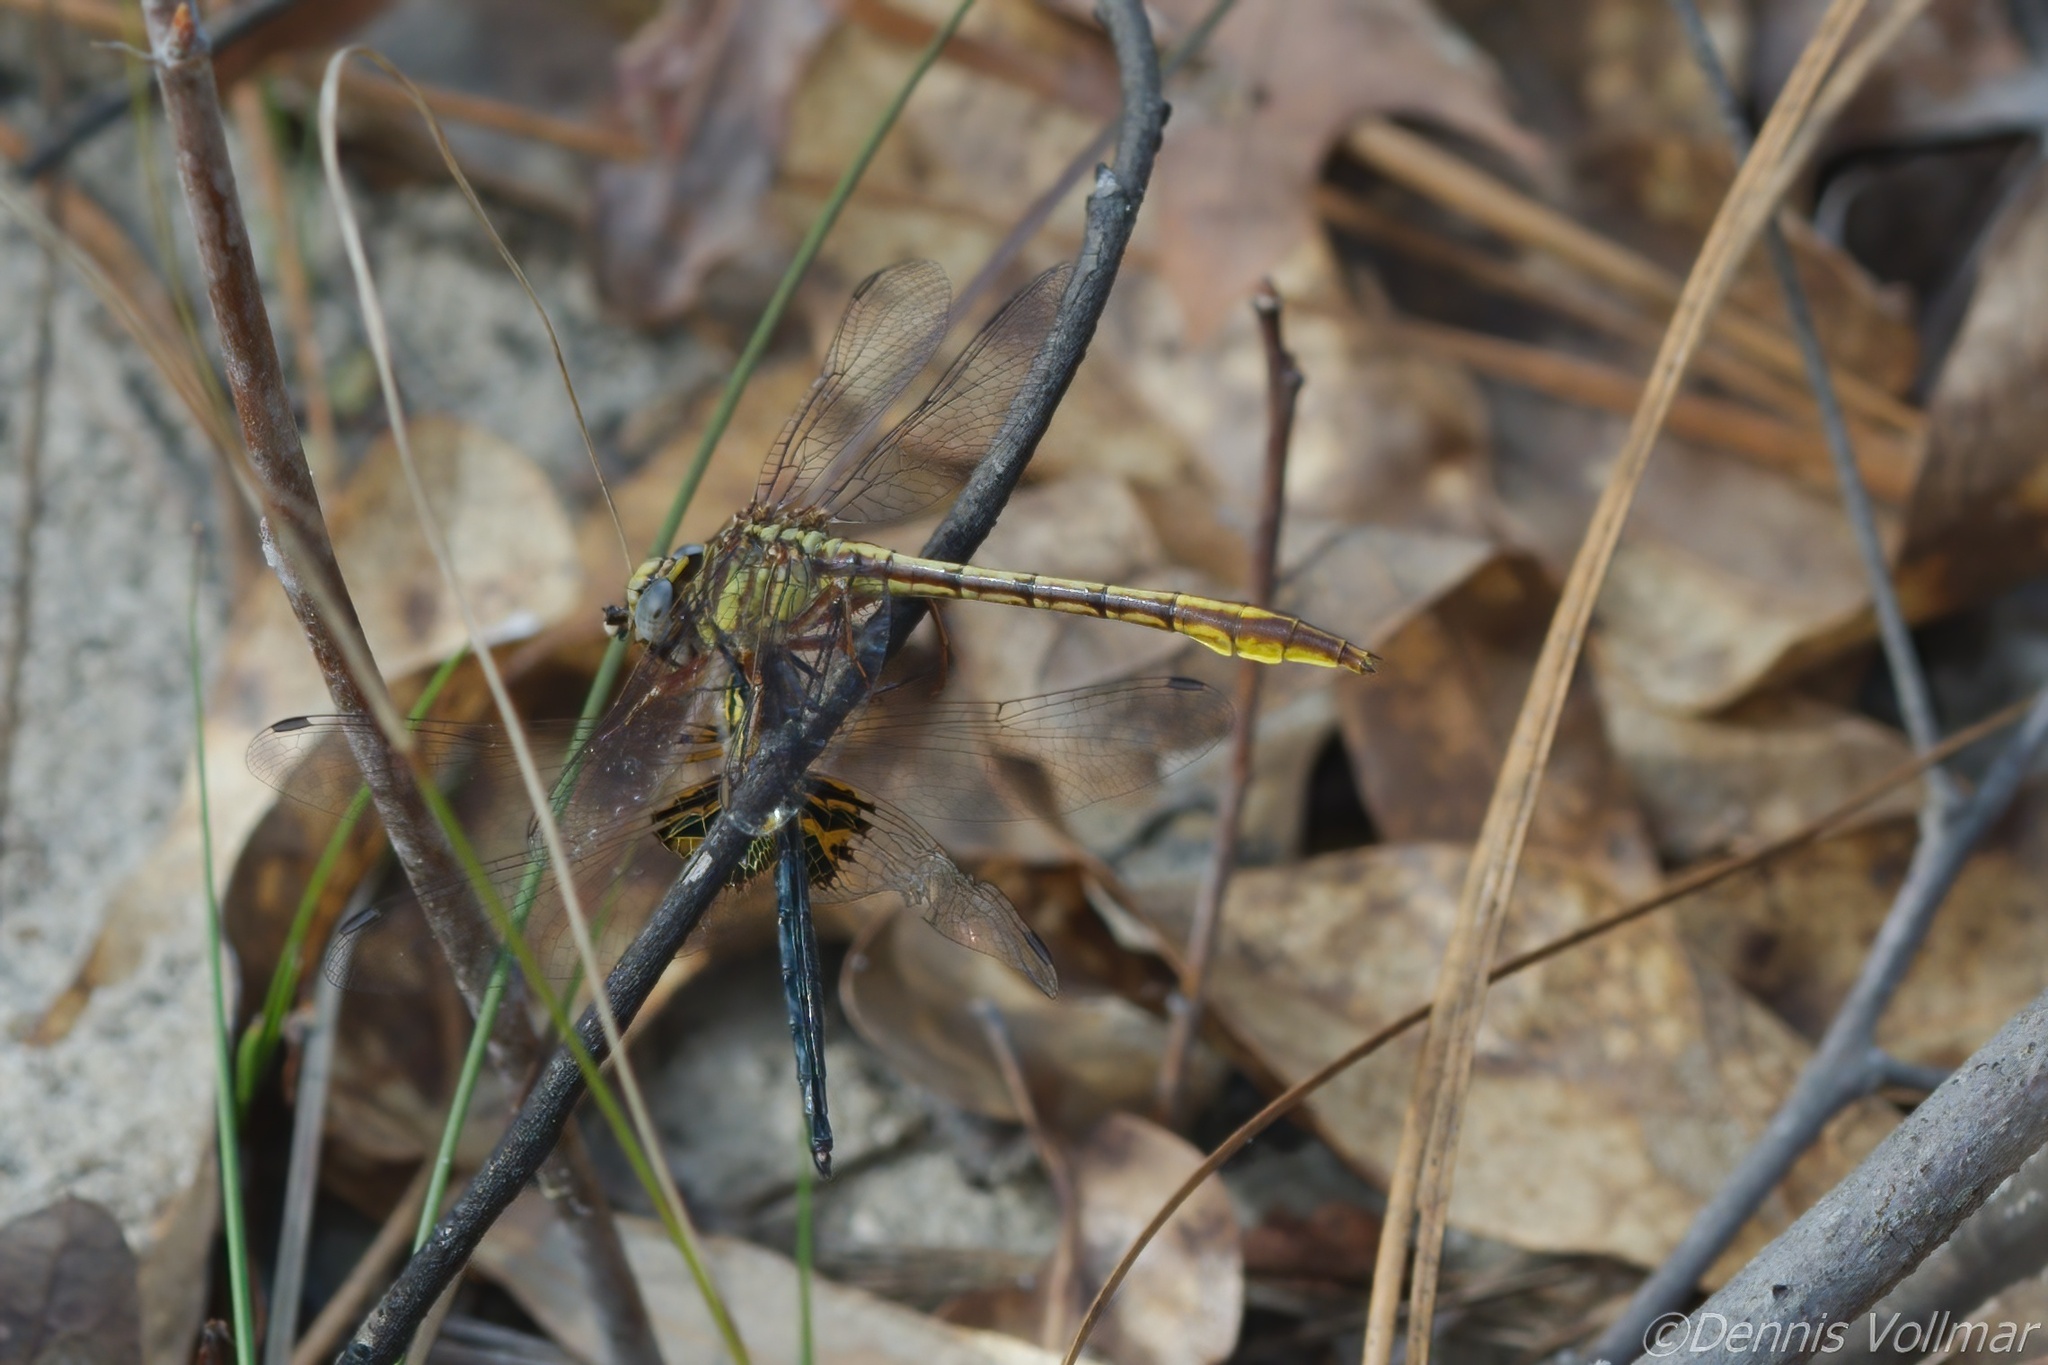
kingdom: Animalia
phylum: Arthropoda
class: Insecta
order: Odonata
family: Gomphidae
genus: Phanogomphus
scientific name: Phanogomphus cavillaris
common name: Sandhill clubtail
